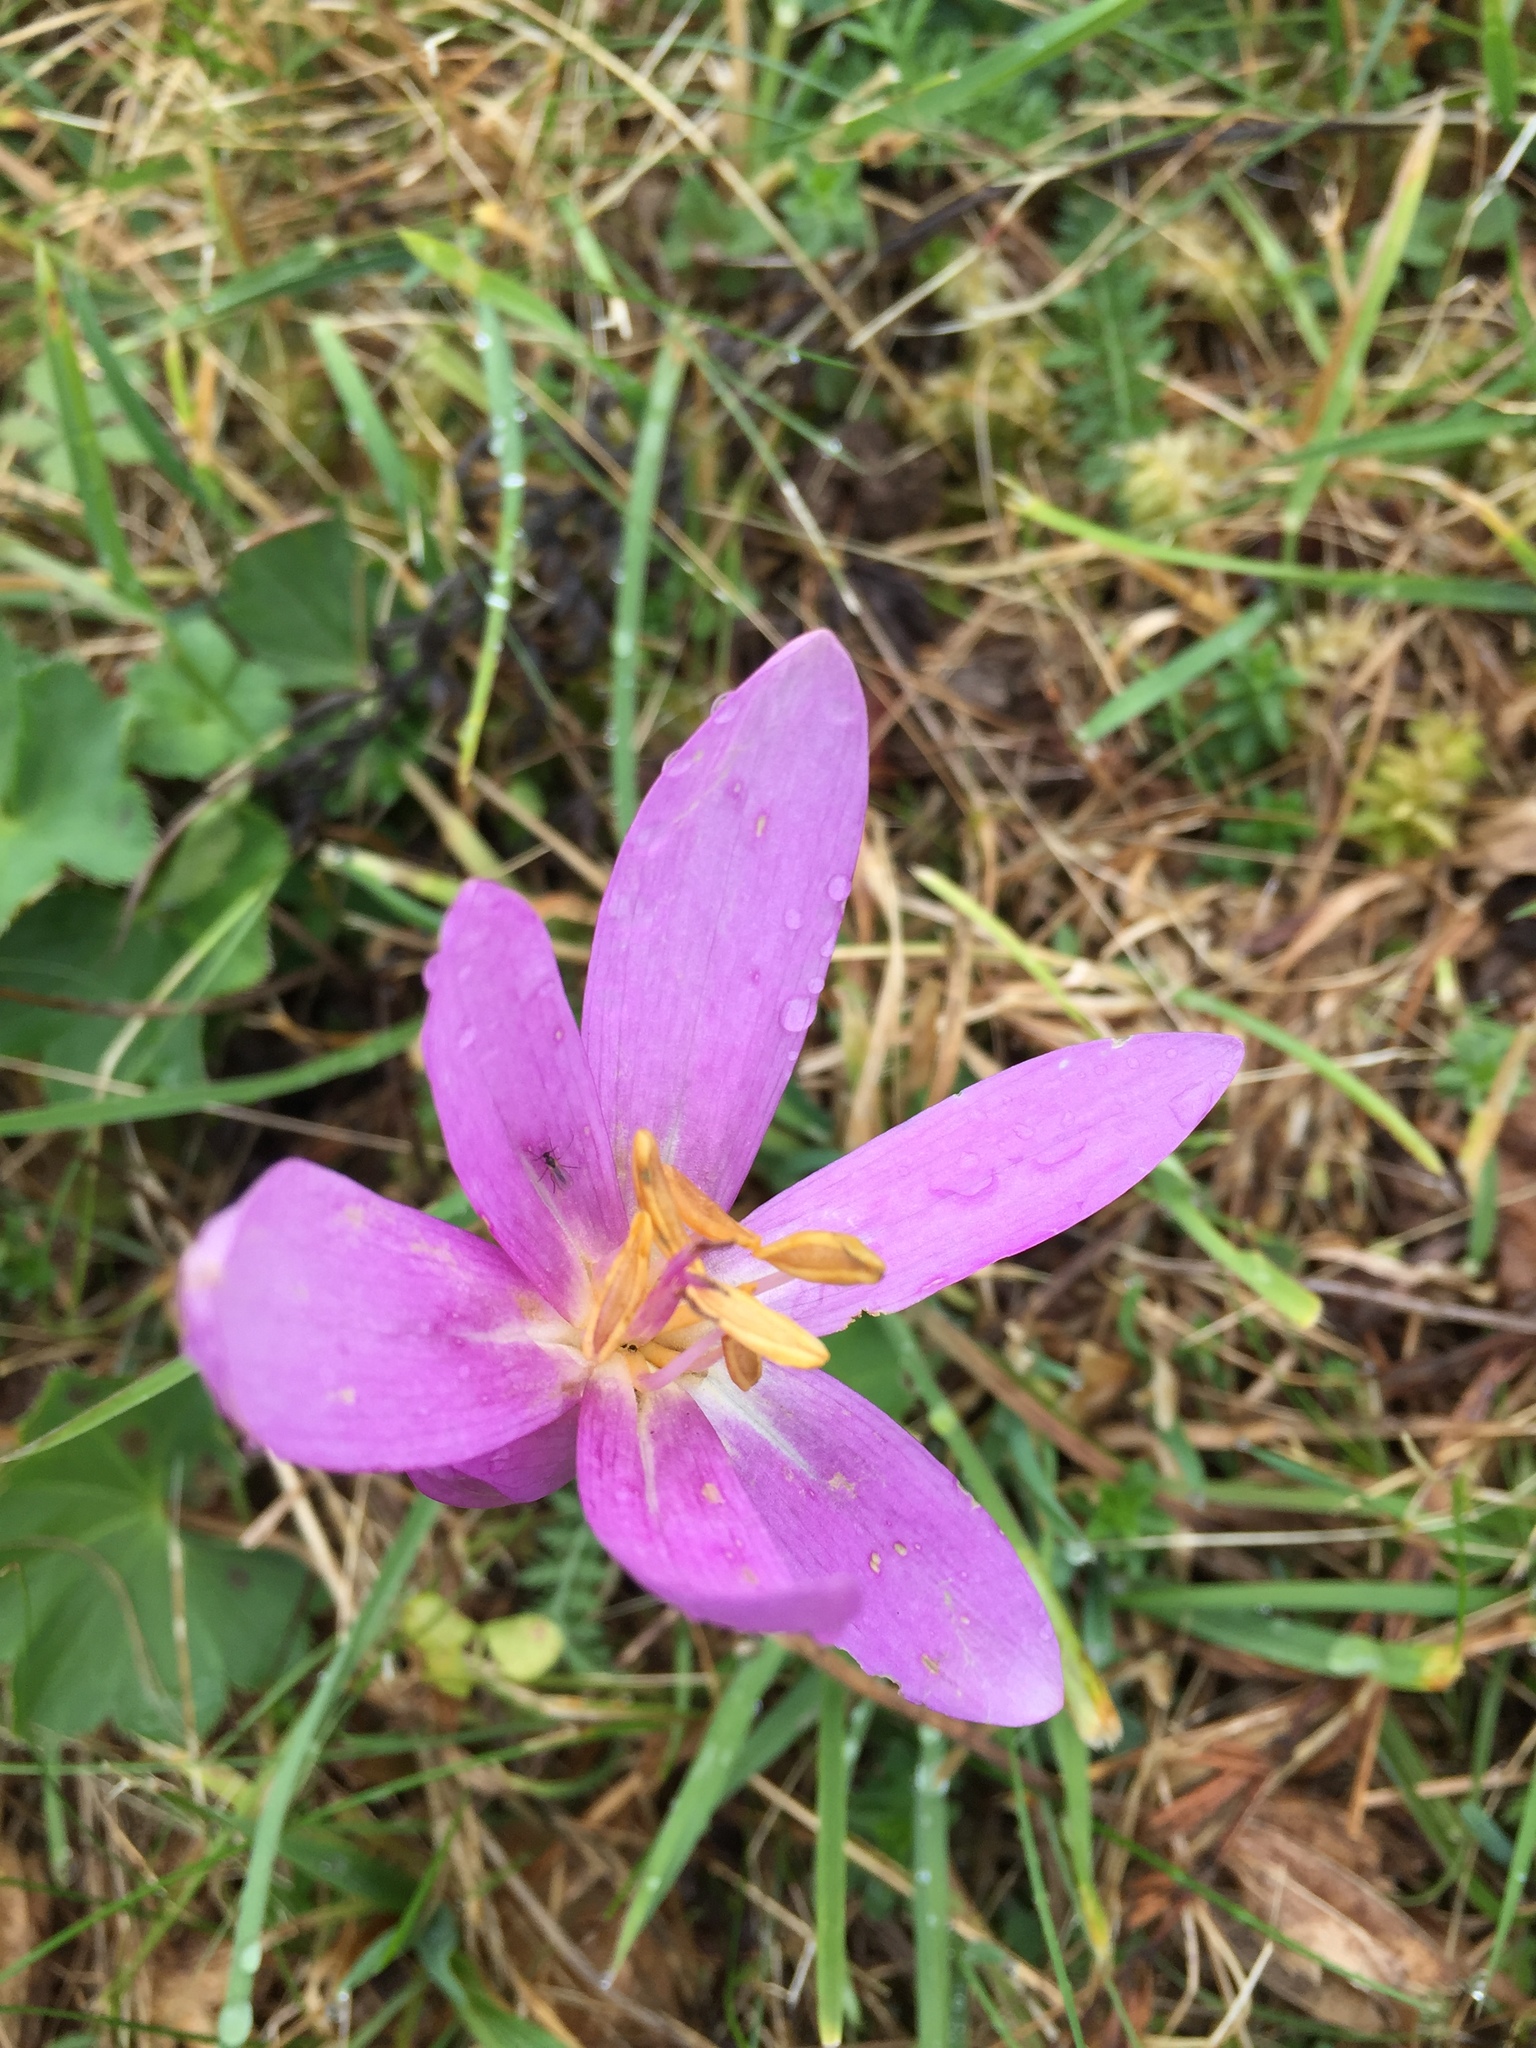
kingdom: Plantae
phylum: Tracheophyta
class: Liliopsida
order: Liliales
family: Colchicaceae
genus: Colchicum
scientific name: Colchicum autumnale
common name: Autumn crocus
